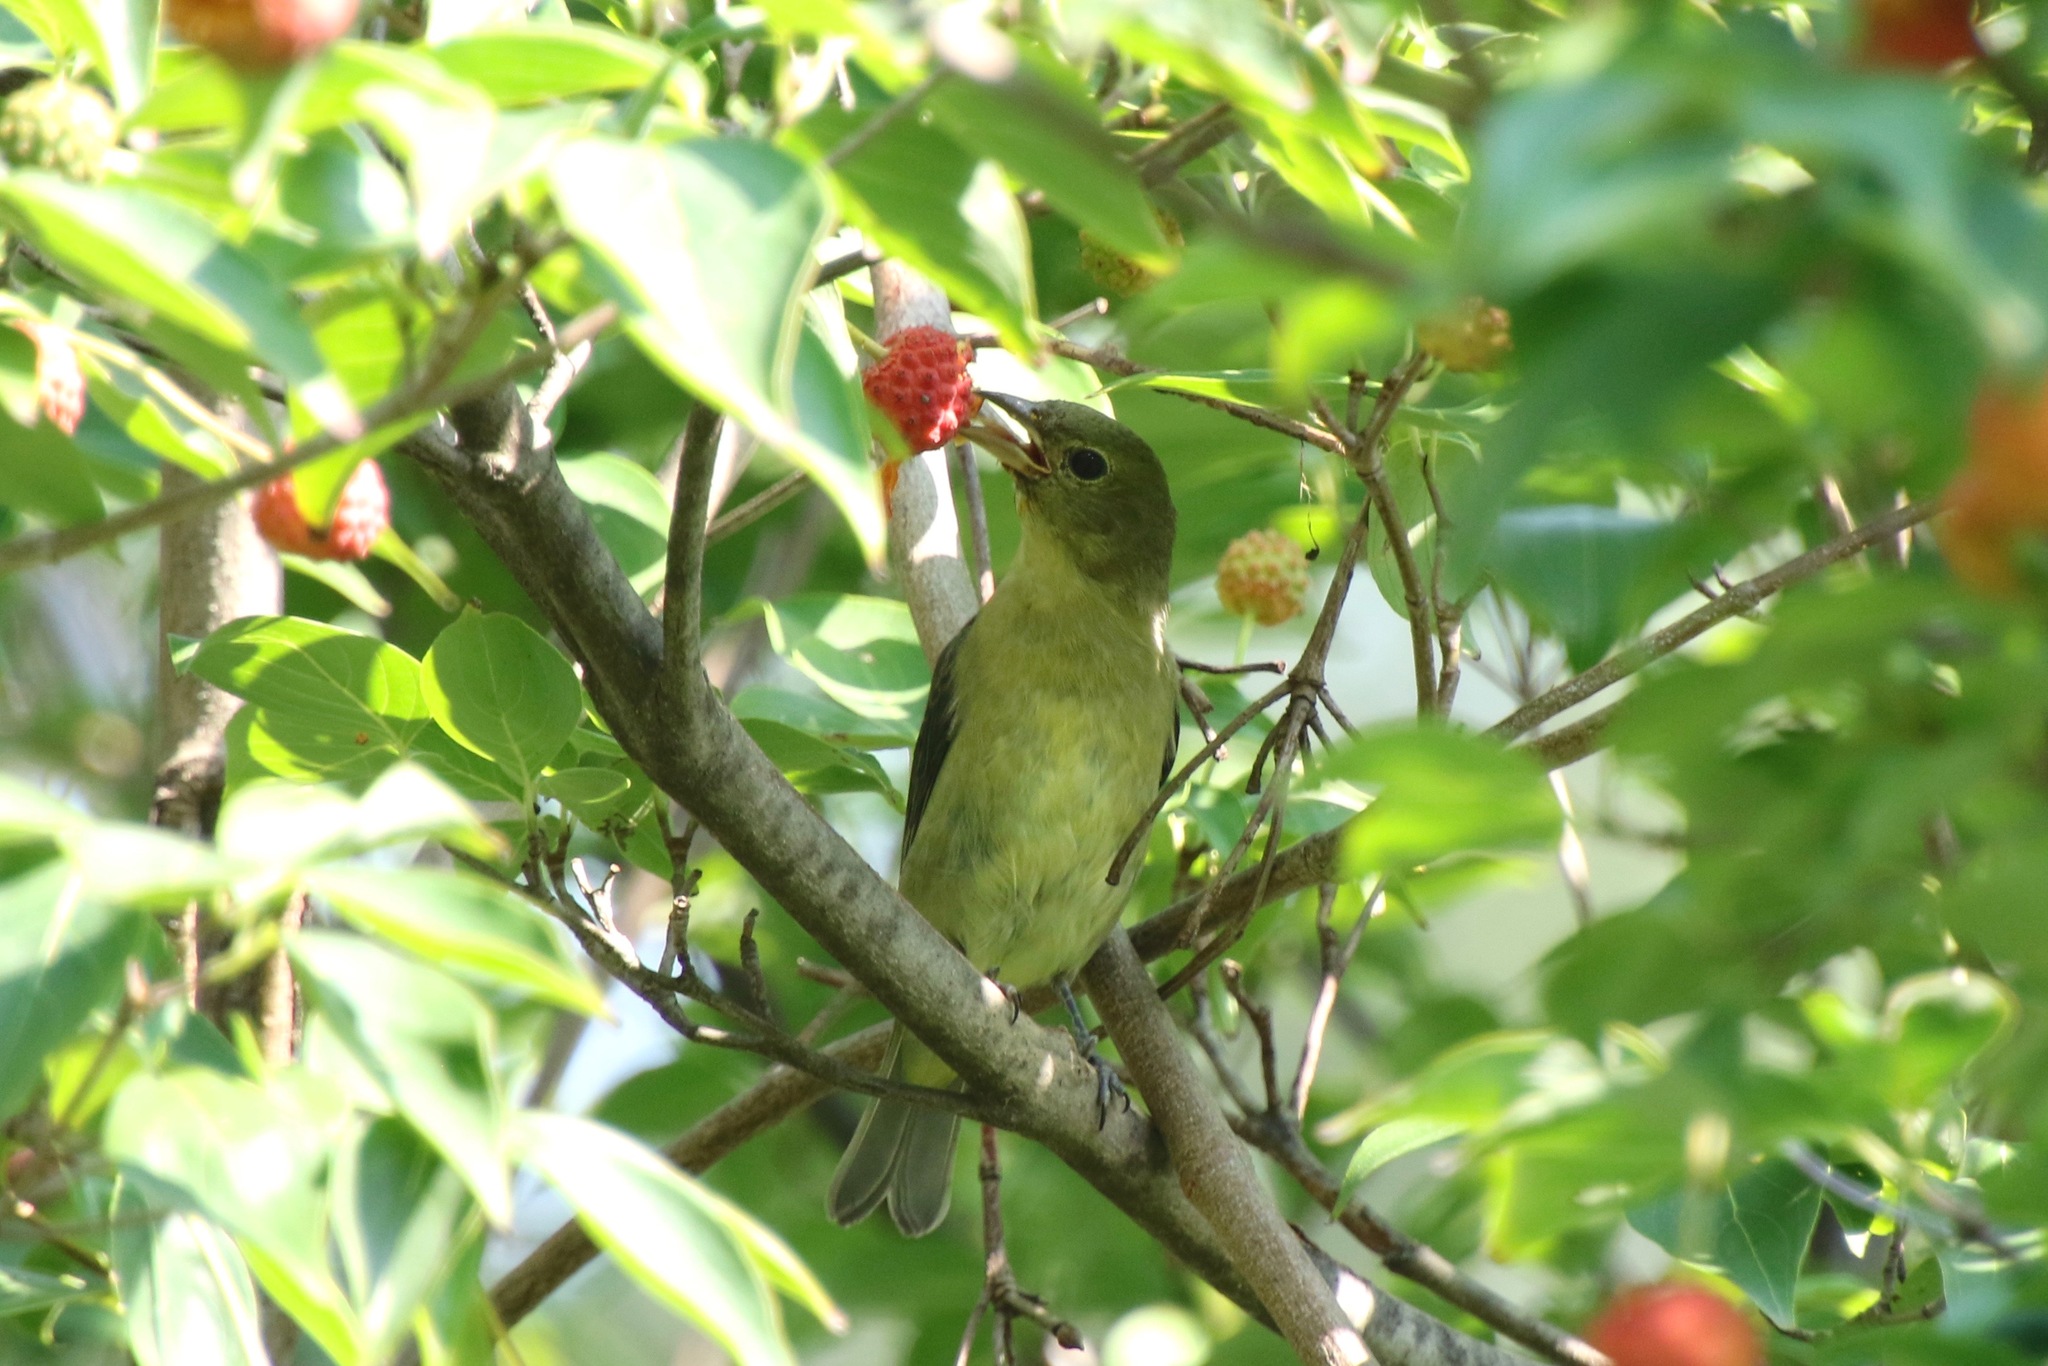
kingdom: Animalia
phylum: Chordata
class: Aves
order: Passeriformes
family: Cardinalidae
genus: Piranga
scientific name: Piranga olivacea
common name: Scarlet tanager
